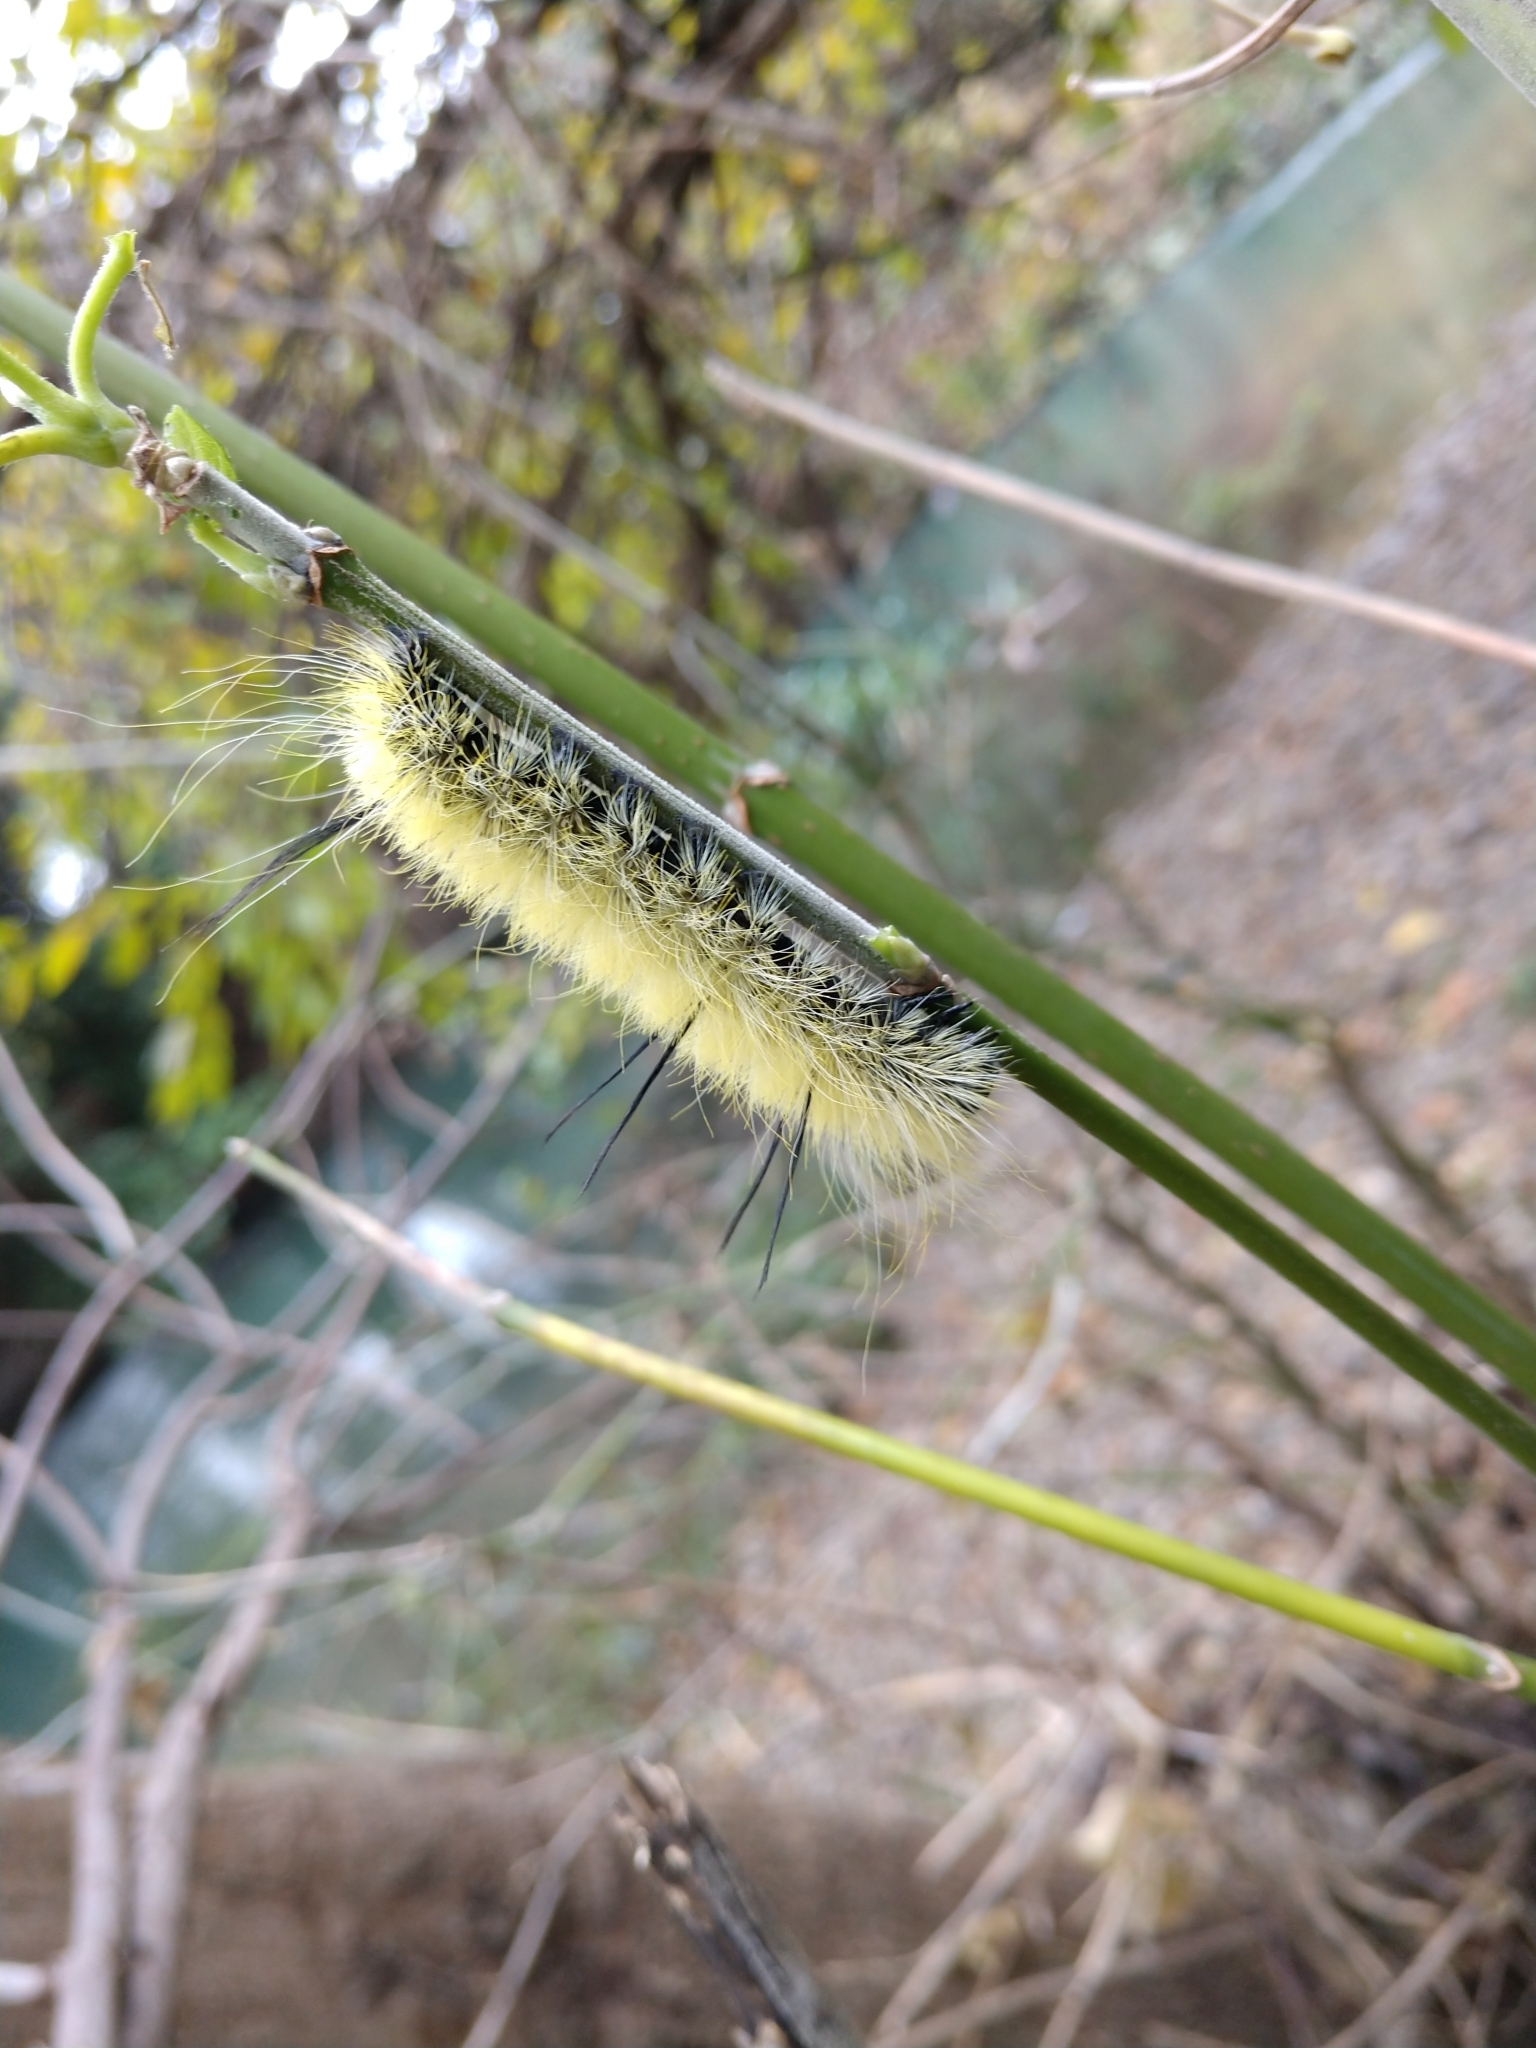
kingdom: Animalia
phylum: Arthropoda
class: Insecta
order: Lepidoptera
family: Noctuidae
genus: Acronicta
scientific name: Acronicta americana
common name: American dagger
